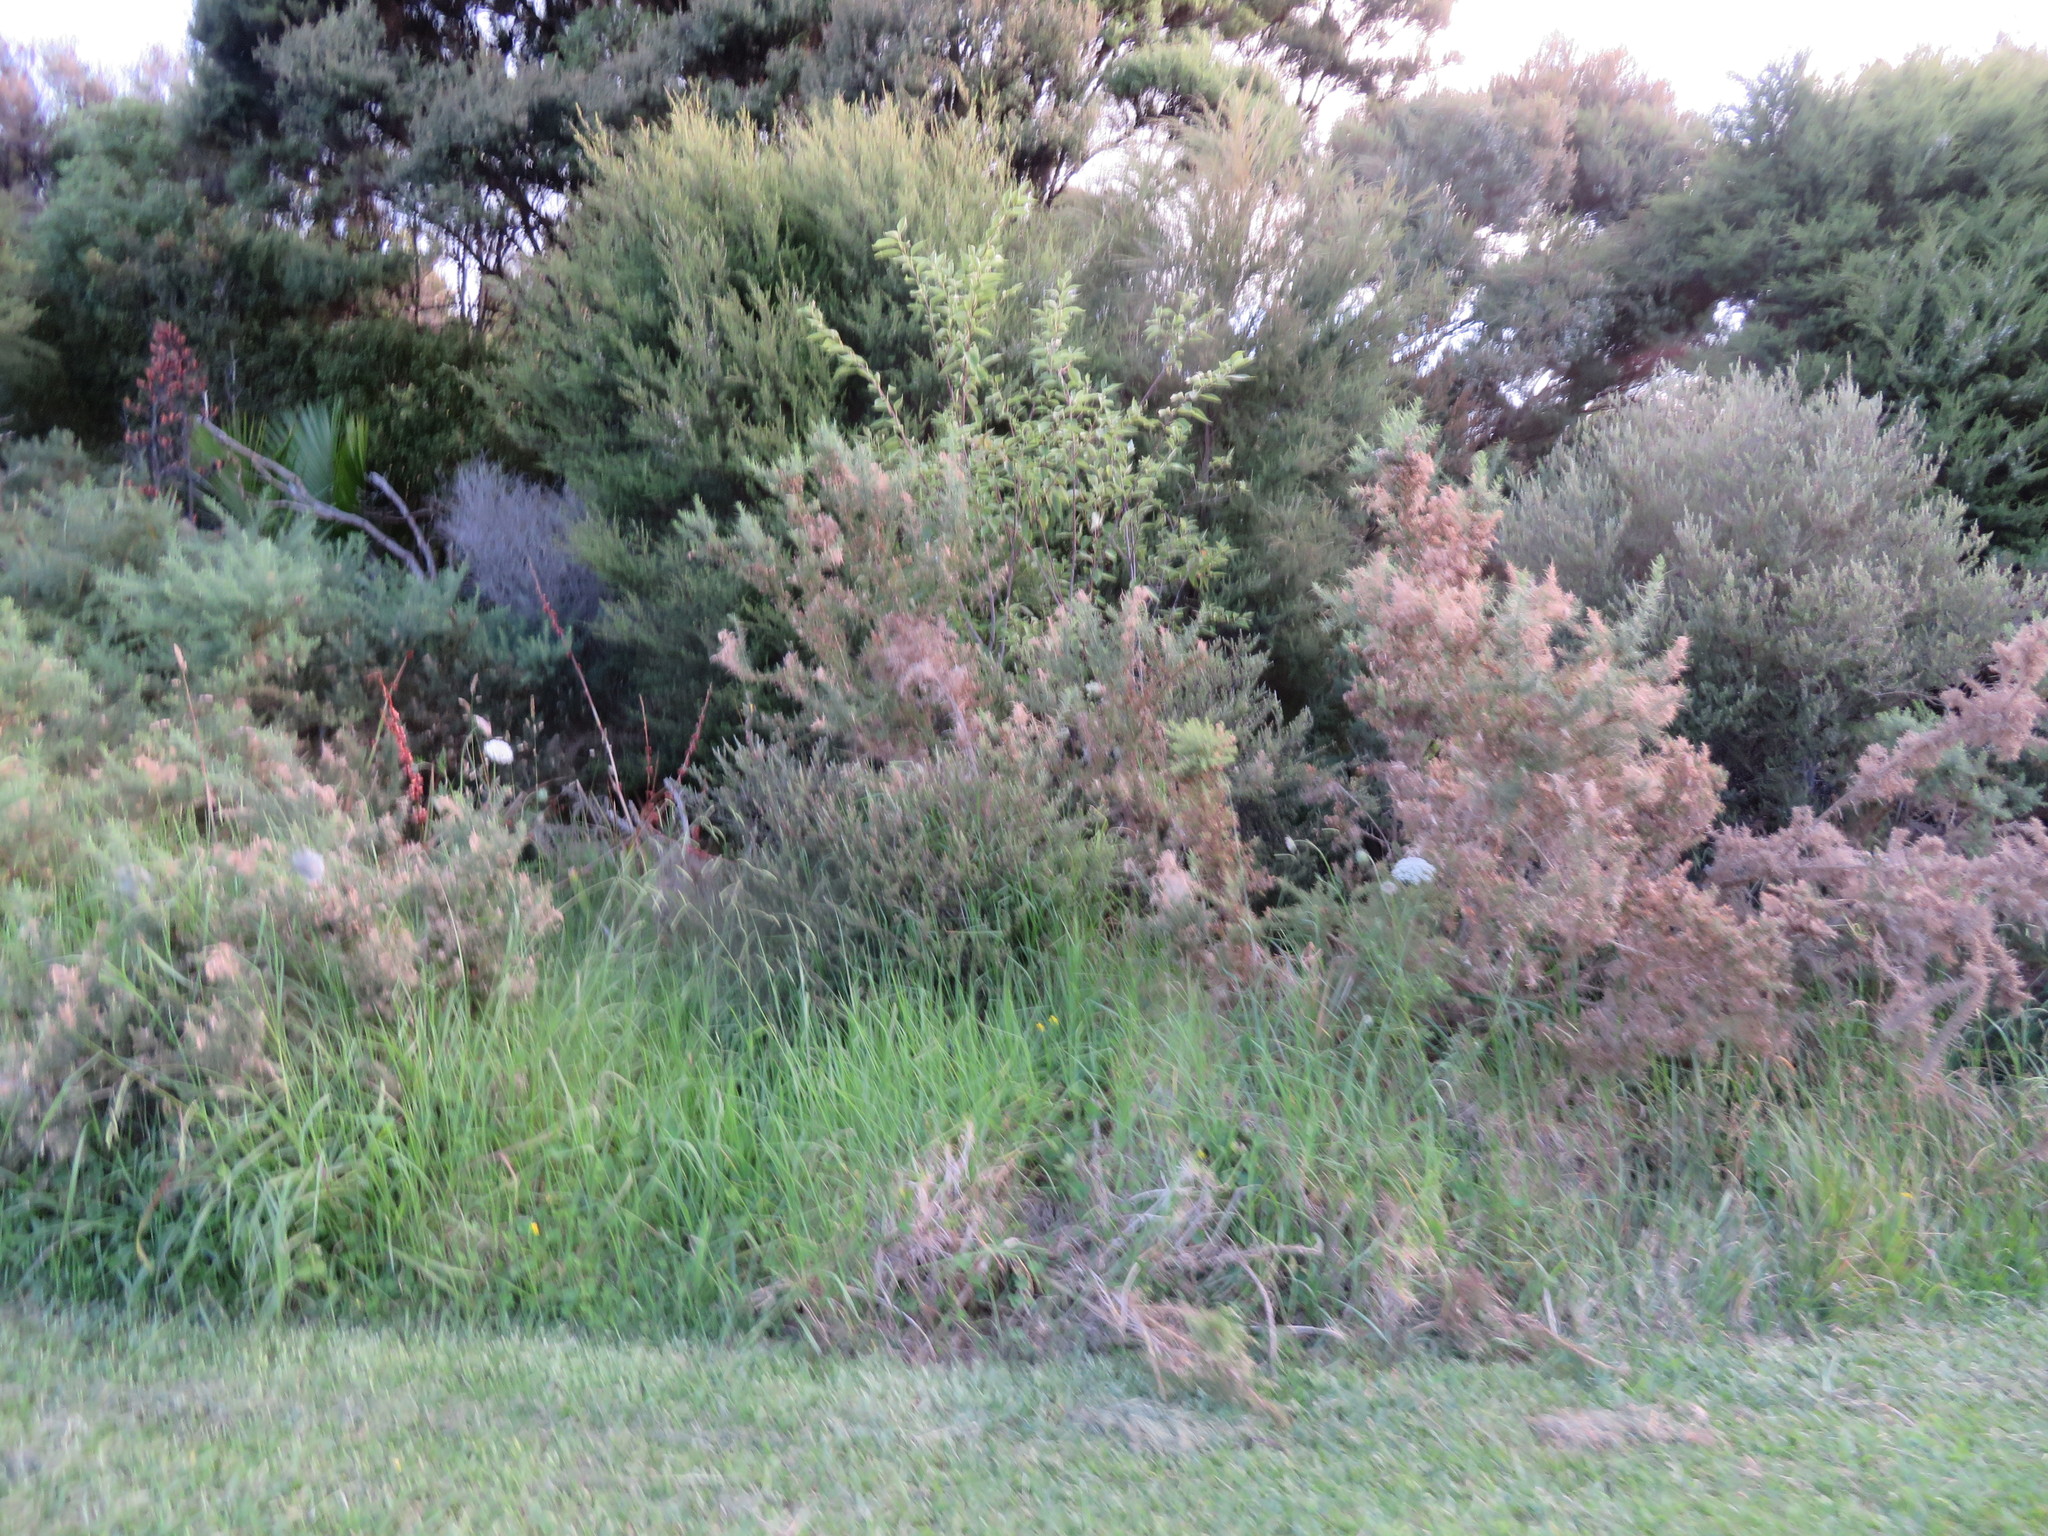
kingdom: Plantae
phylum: Tracheophyta
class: Liliopsida
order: Poales
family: Poaceae
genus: Cenchrus
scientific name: Cenchrus clandestinus
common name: Kikuyugrass
